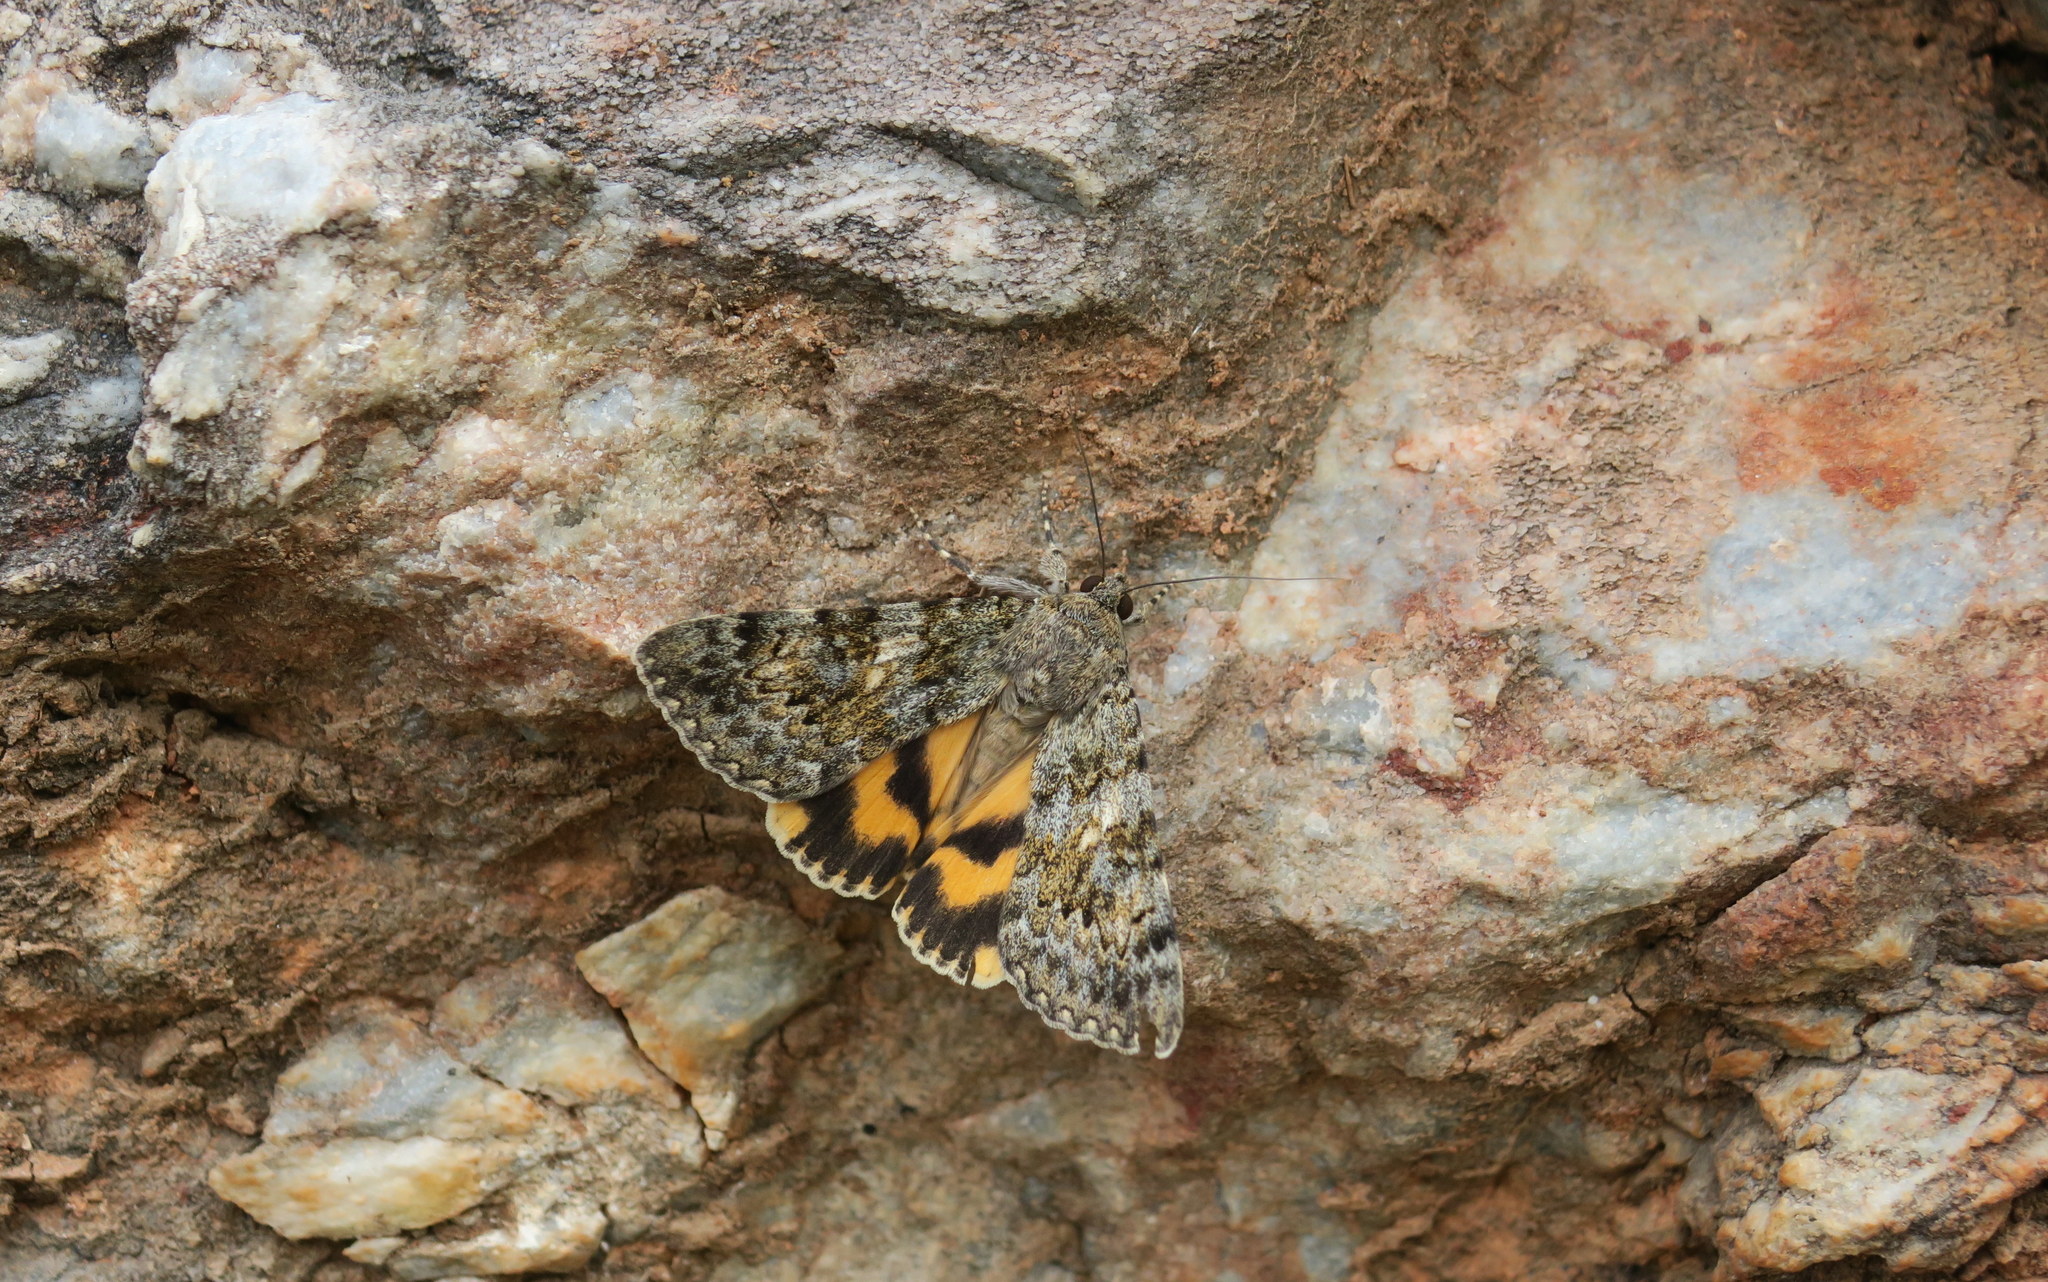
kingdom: Animalia
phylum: Arthropoda
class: Insecta
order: Lepidoptera
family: Erebidae
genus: Catocala
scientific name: Catocala nymphaea
